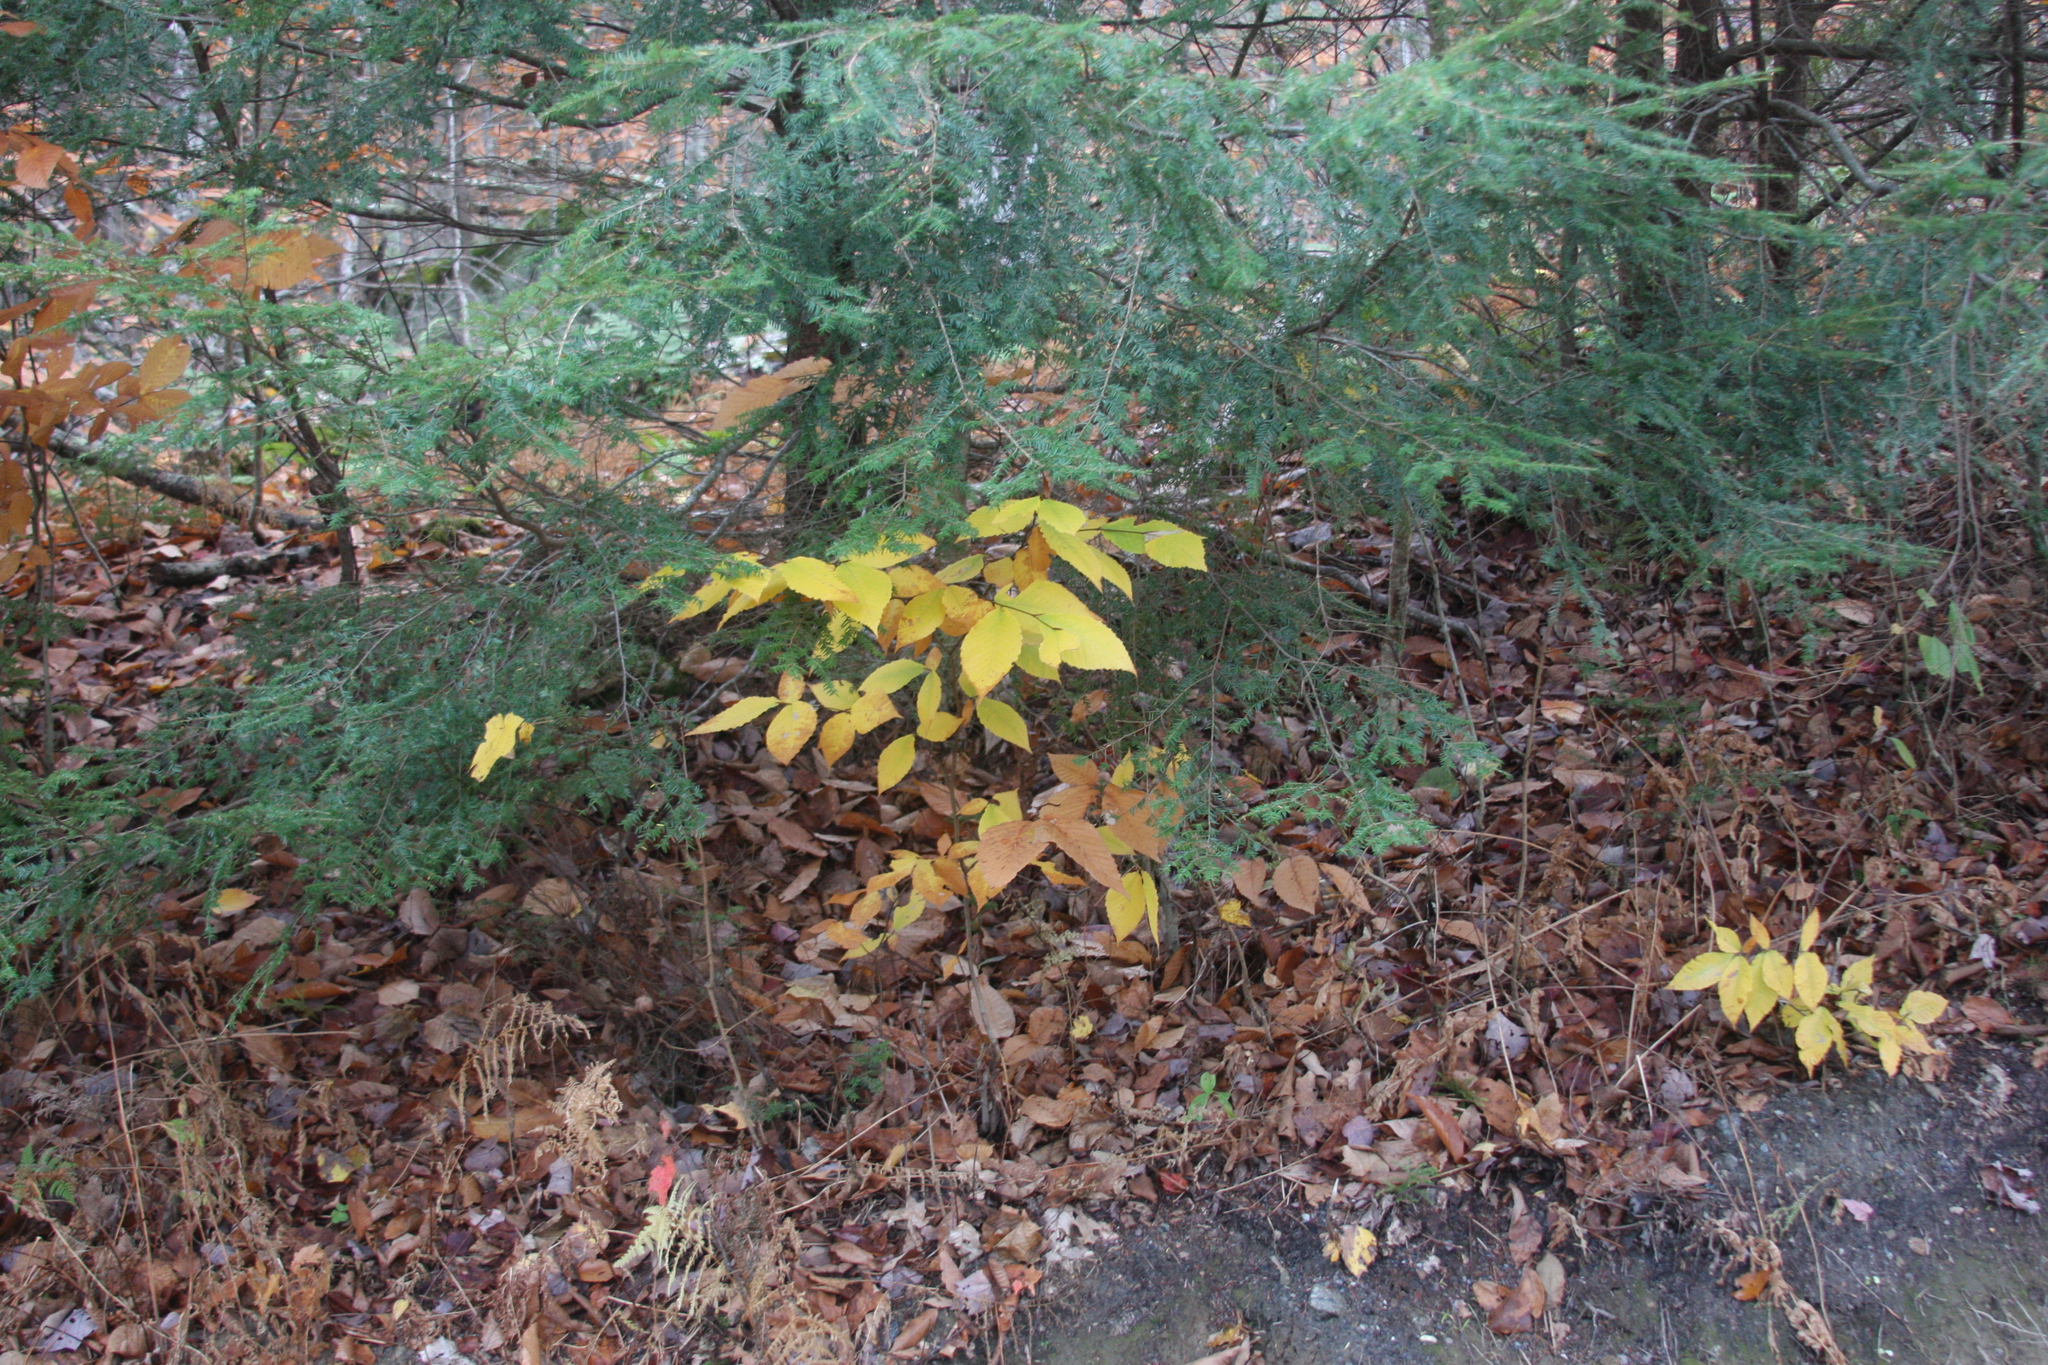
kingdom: Plantae
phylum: Tracheophyta
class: Pinopsida
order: Pinales
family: Pinaceae
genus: Tsuga
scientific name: Tsuga canadensis
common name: Eastern hemlock
